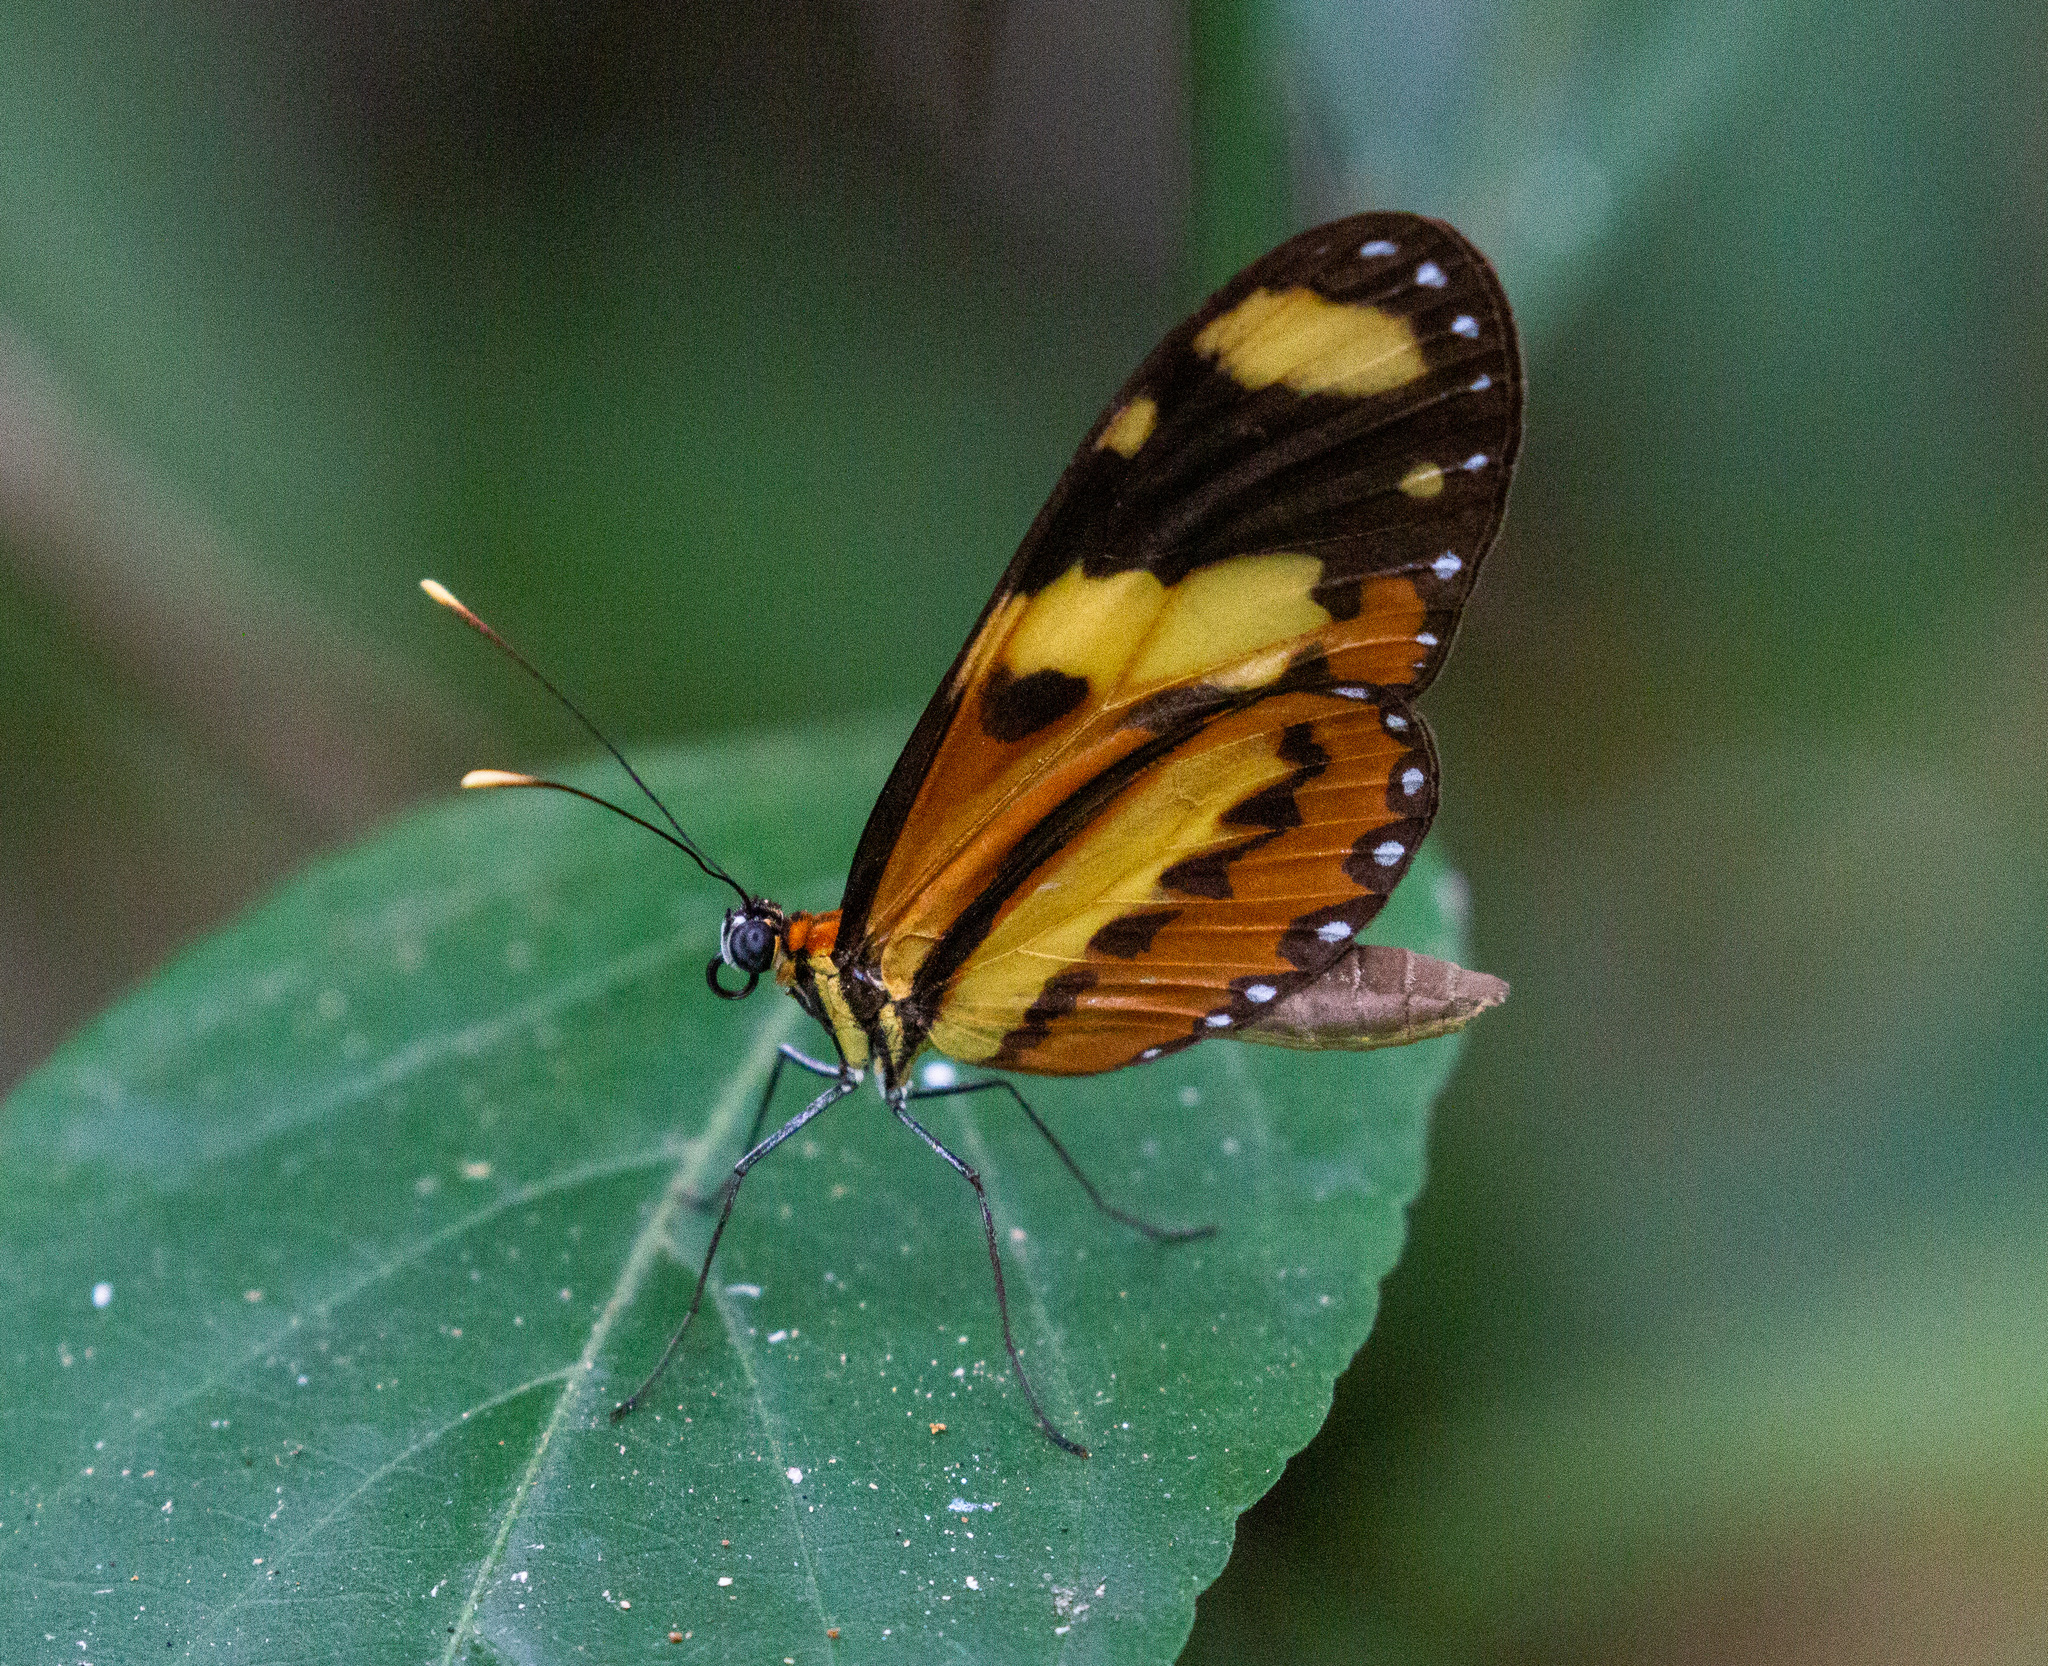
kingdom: Animalia
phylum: Arthropoda
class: Insecta
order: Lepidoptera
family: Nymphalidae
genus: Mechanitis
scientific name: Mechanitis lysimnia
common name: Lysimnia tigerwing
